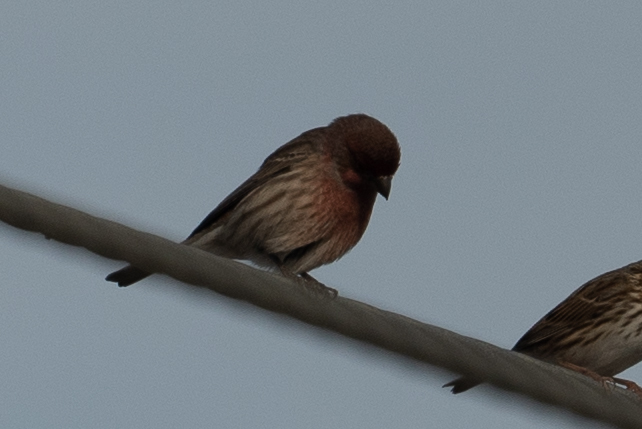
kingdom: Animalia
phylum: Chordata
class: Aves
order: Passeriformes
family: Fringillidae
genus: Haemorhous
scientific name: Haemorhous mexicanus
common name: House finch
